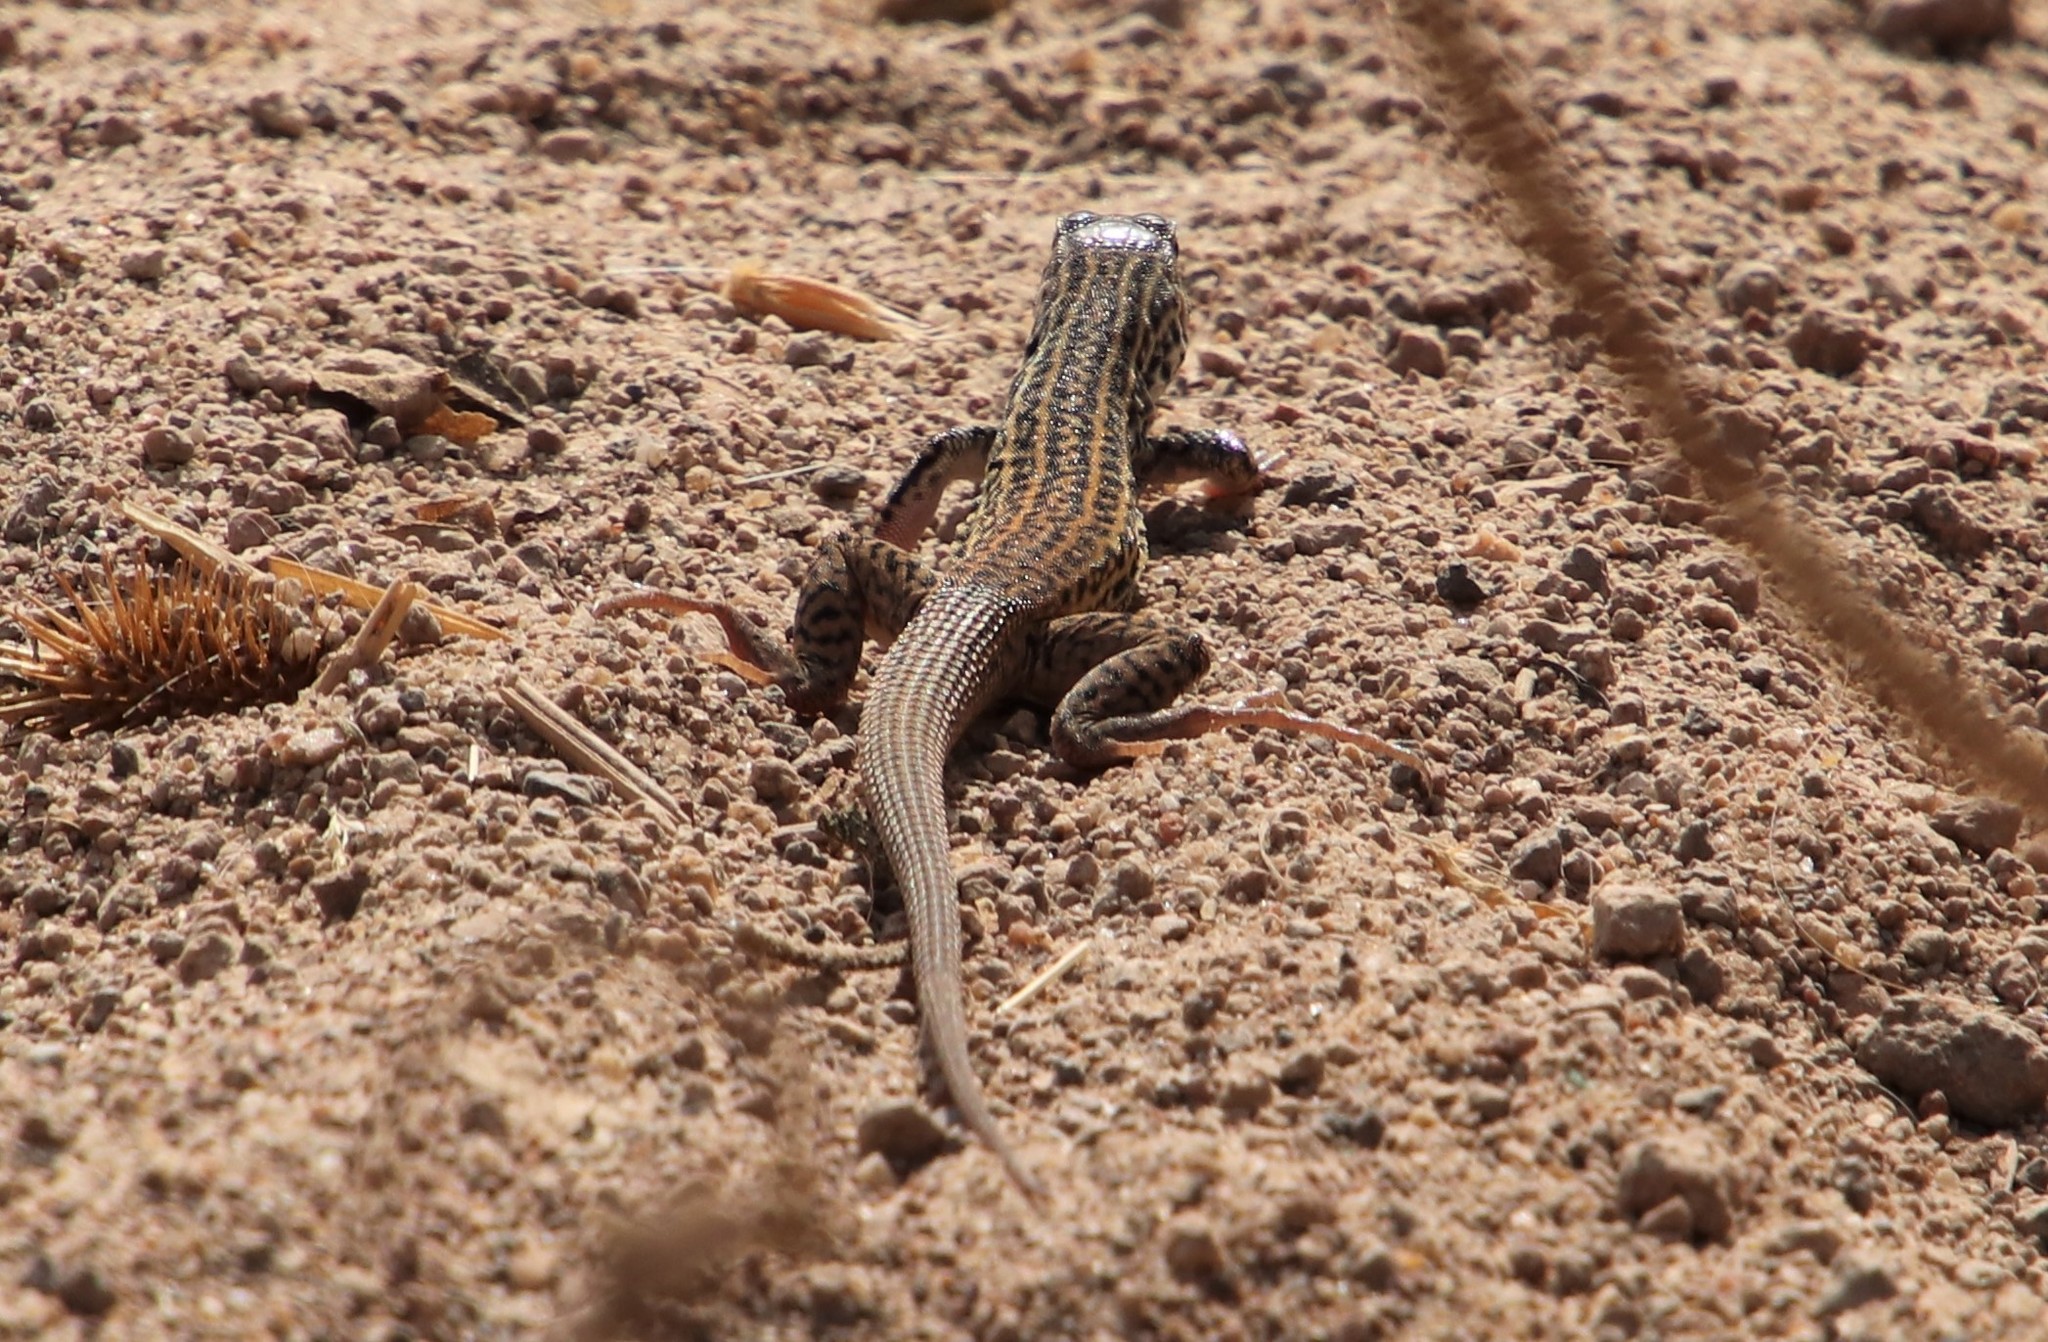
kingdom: Animalia
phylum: Chordata
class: Squamata
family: Teiidae
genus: Aspidoscelis
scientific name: Aspidoscelis tigris
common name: Tiger whiptail
